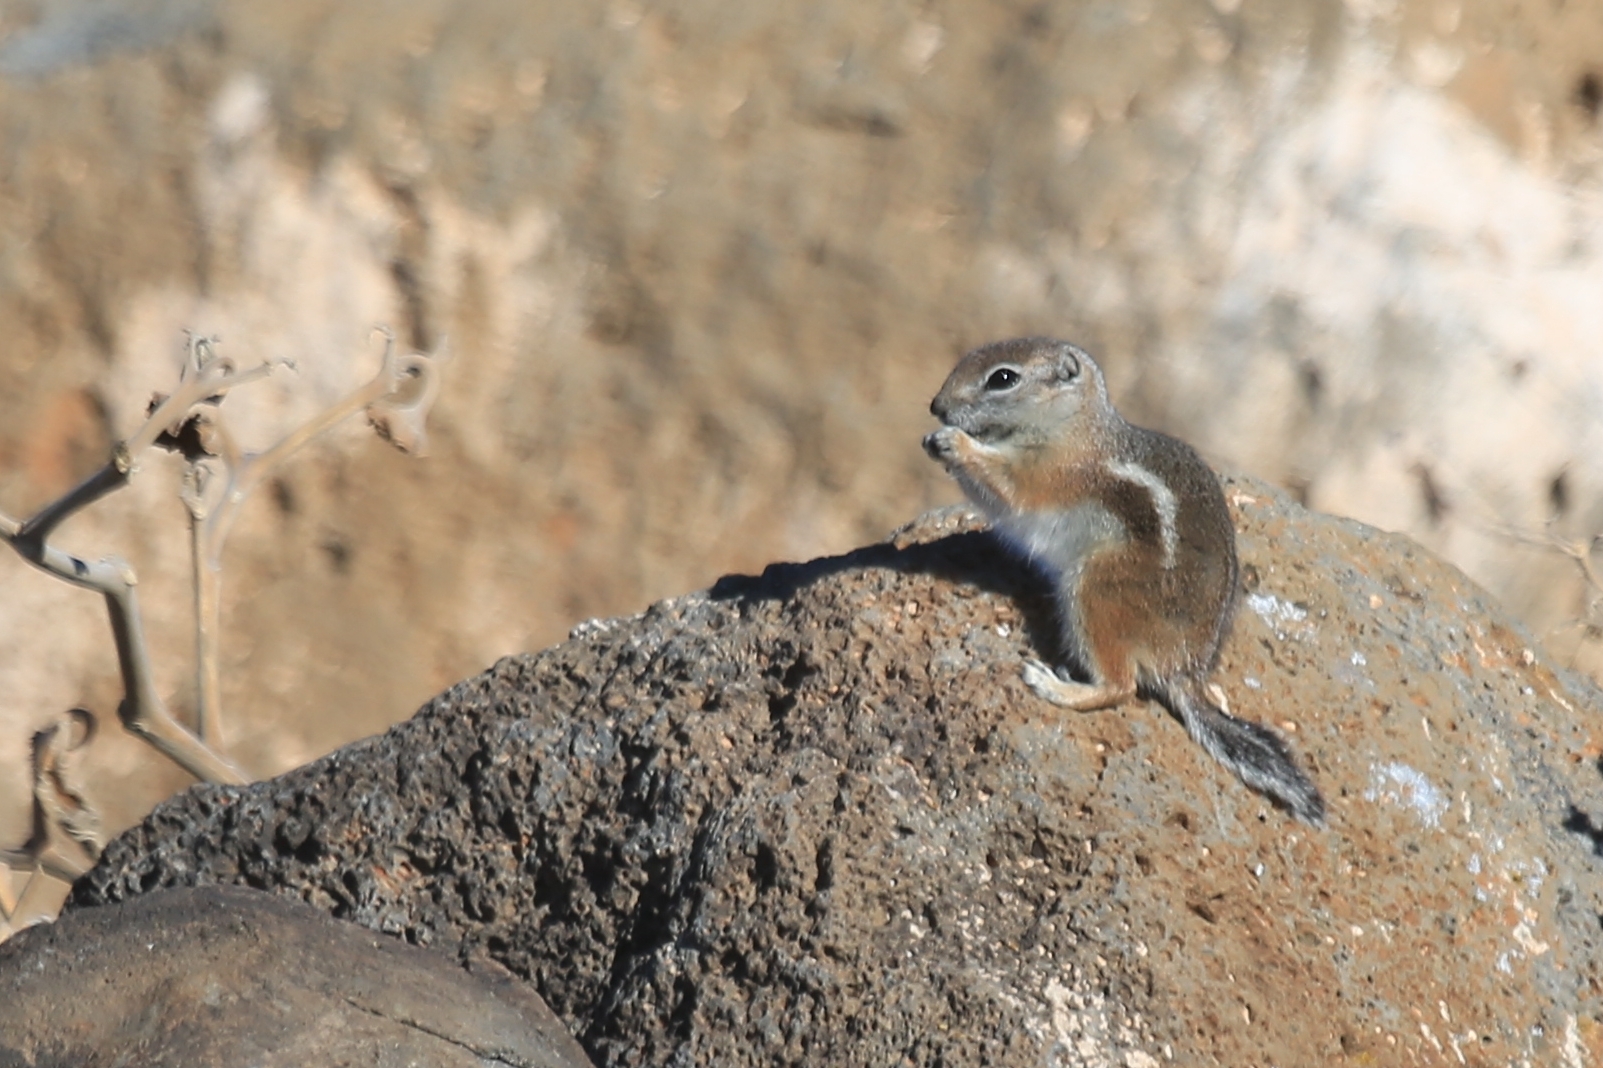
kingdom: Animalia
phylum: Chordata
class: Mammalia
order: Rodentia
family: Sciuridae
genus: Ammospermophilus
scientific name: Ammospermophilus leucurus
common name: White-tailed antelope squirrel
